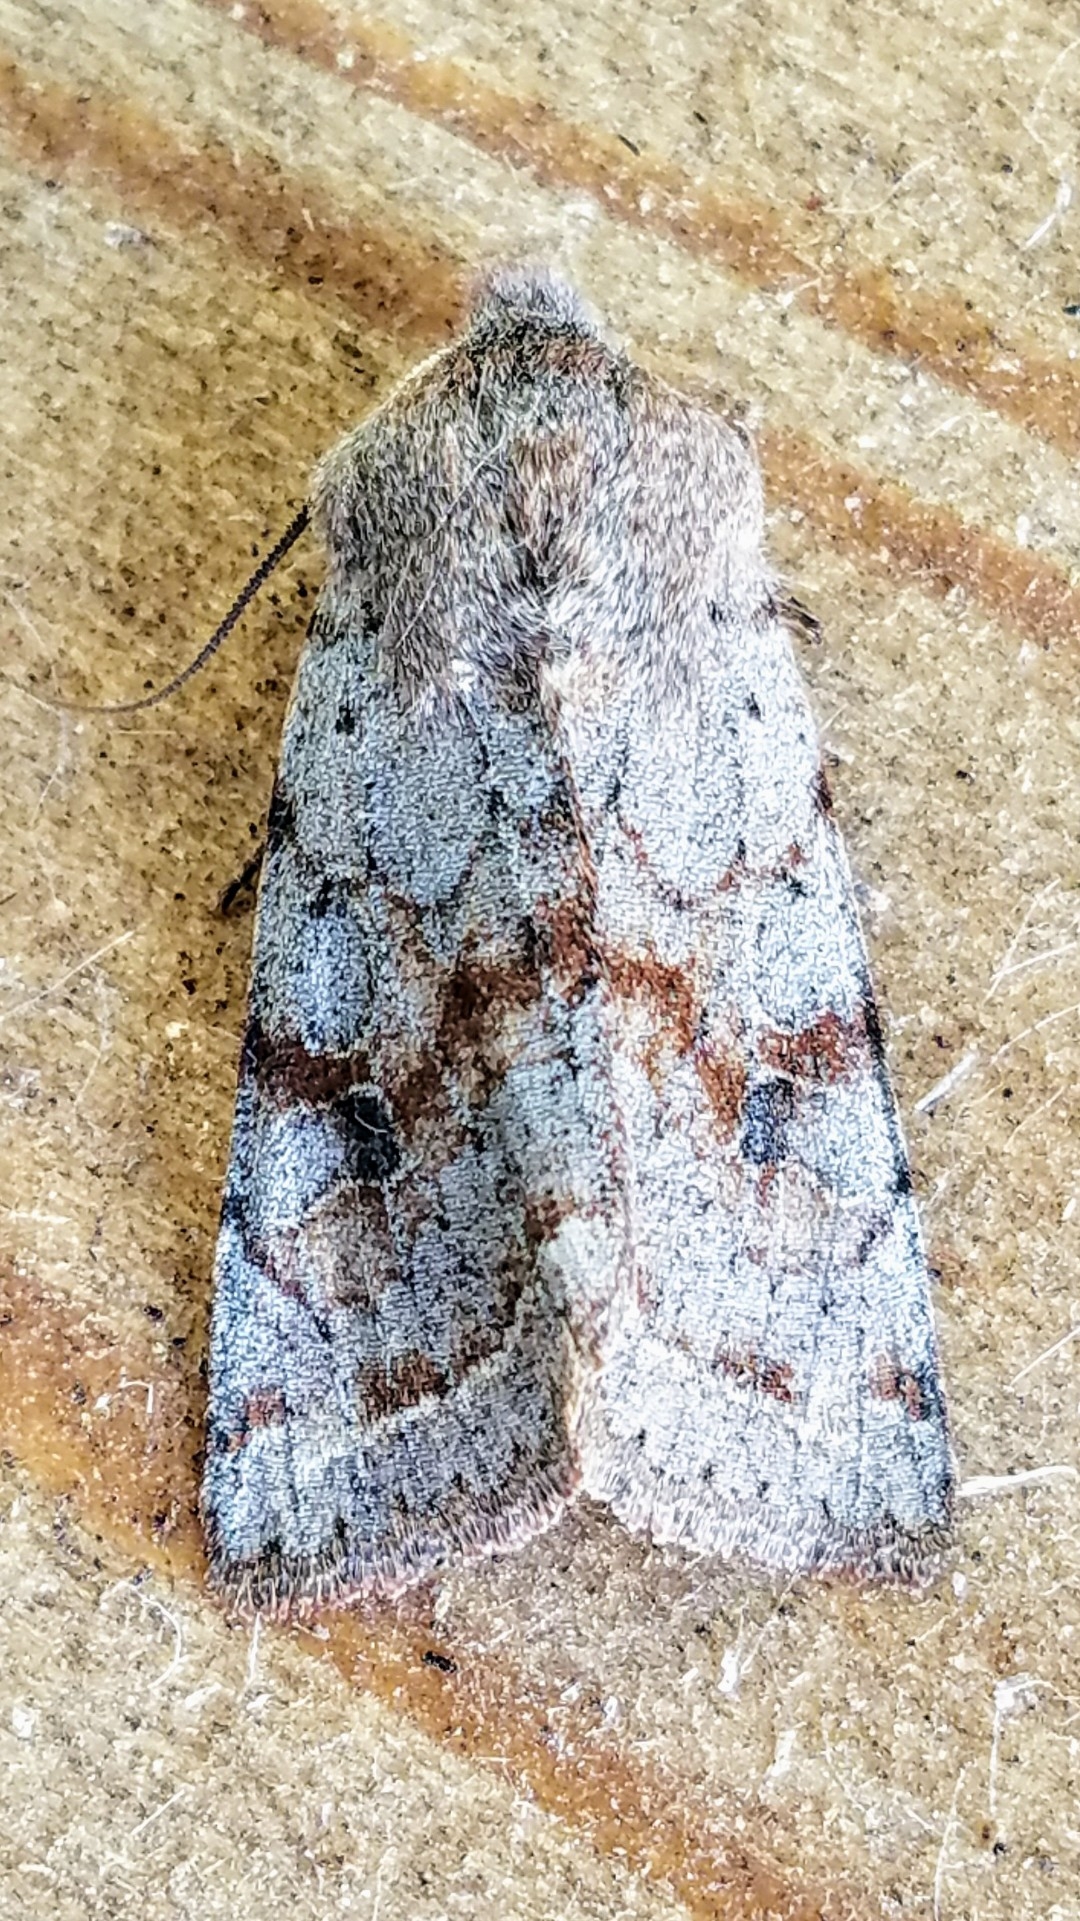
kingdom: Animalia
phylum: Arthropoda
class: Insecta
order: Lepidoptera
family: Noctuidae
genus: Orthosia
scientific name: Orthosia hibisci
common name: Green fruitworm
